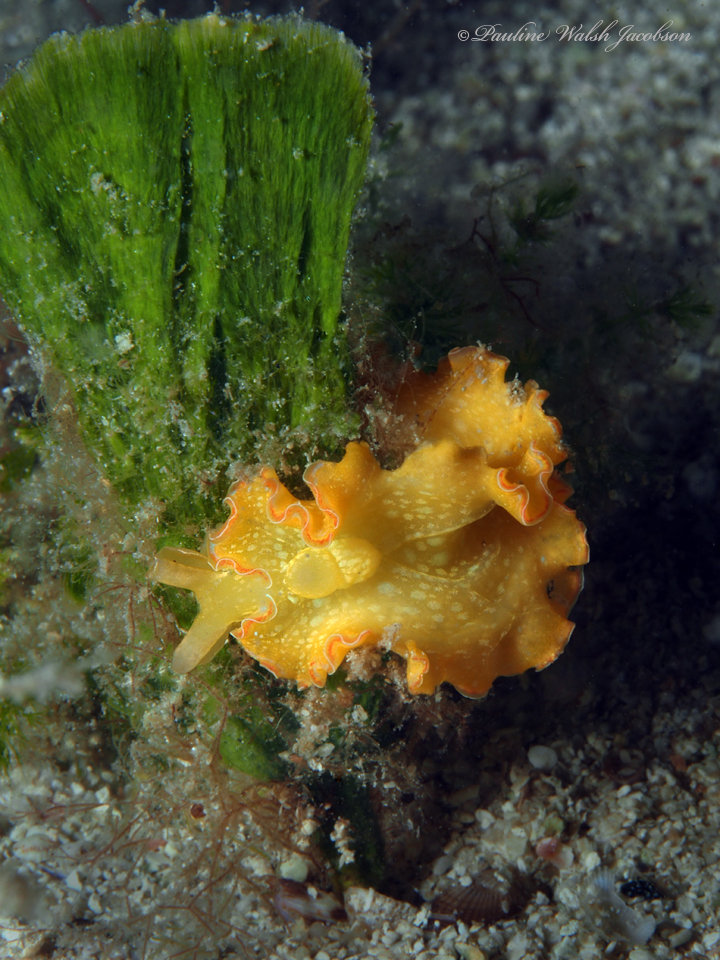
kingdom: Animalia
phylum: Mollusca
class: Gastropoda
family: Plakobranchidae
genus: Elysia
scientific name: Elysia crispata
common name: Lettuce slug
